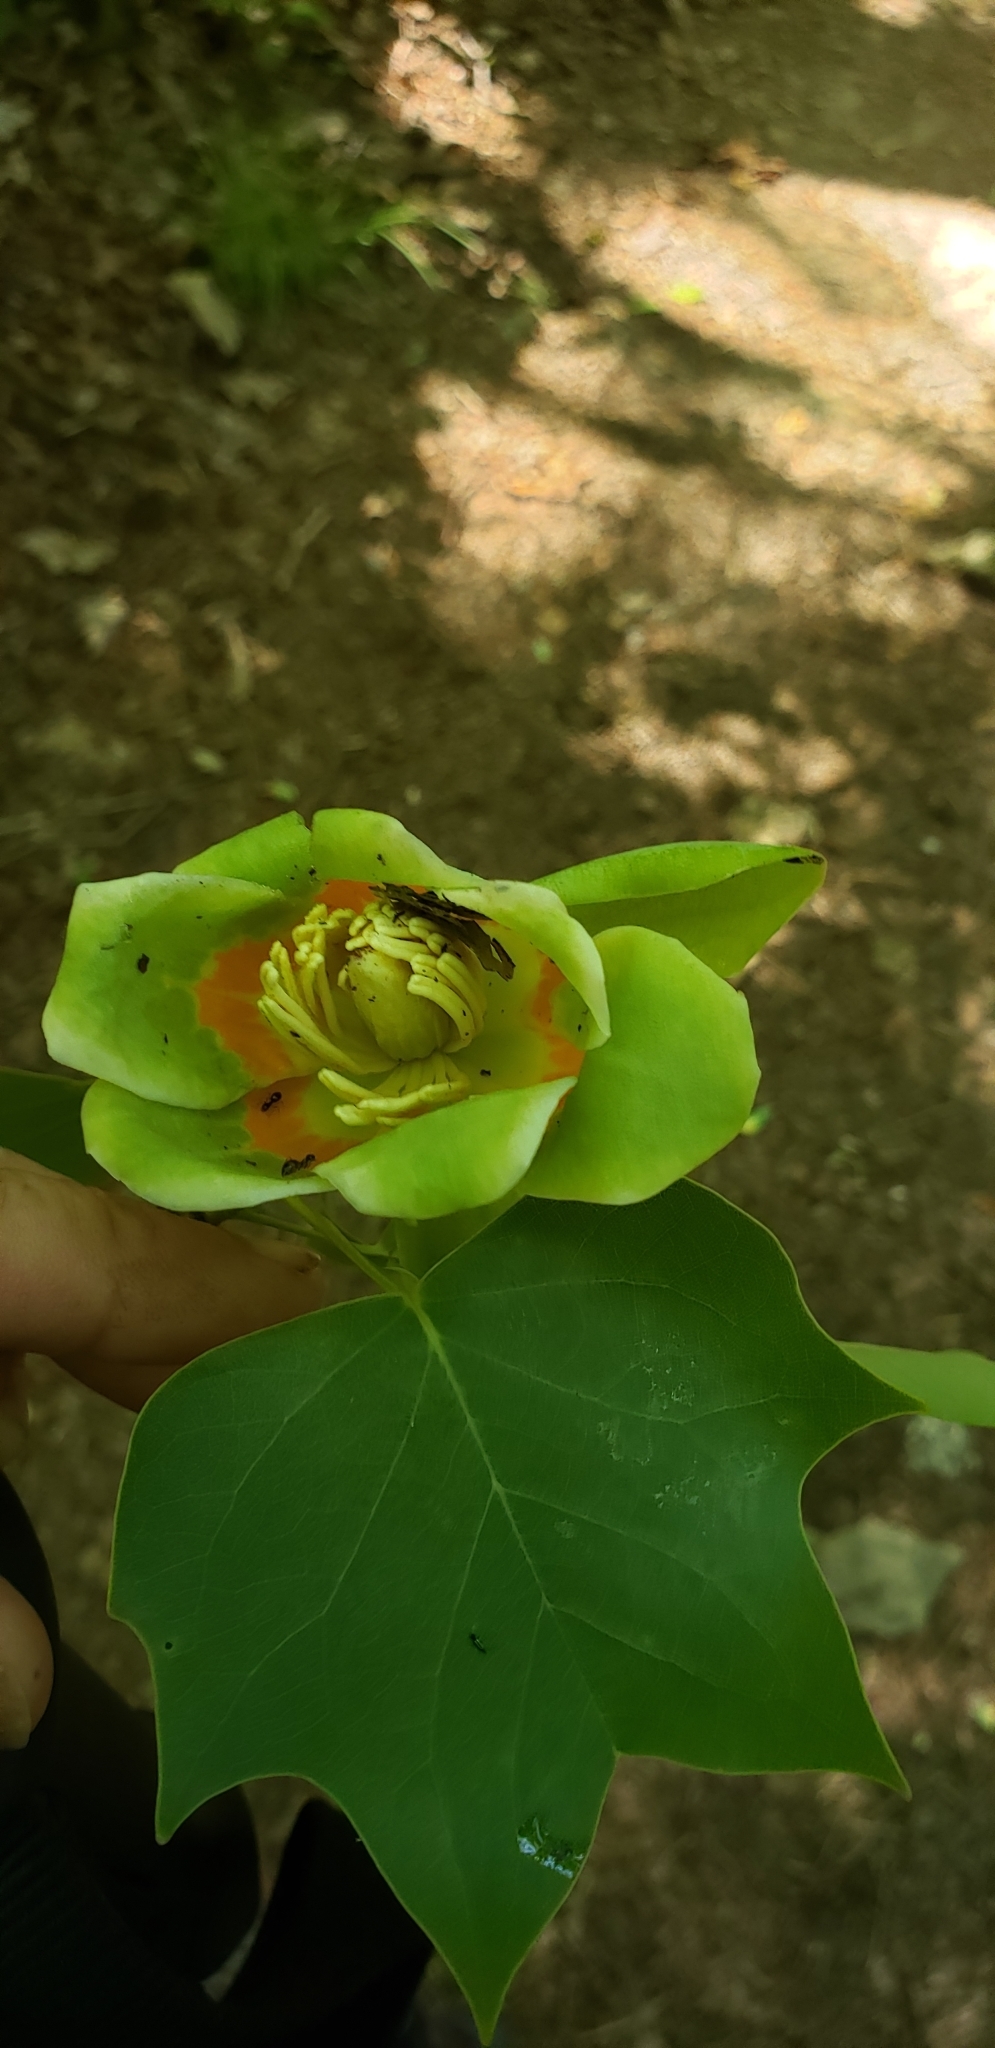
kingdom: Plantae
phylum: Tracheophyta
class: Magnoliopsida
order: Magnoliales
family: Magnoliaceae
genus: Liriodendron
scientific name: Liriodendron tulipifera
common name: Tulip tree
